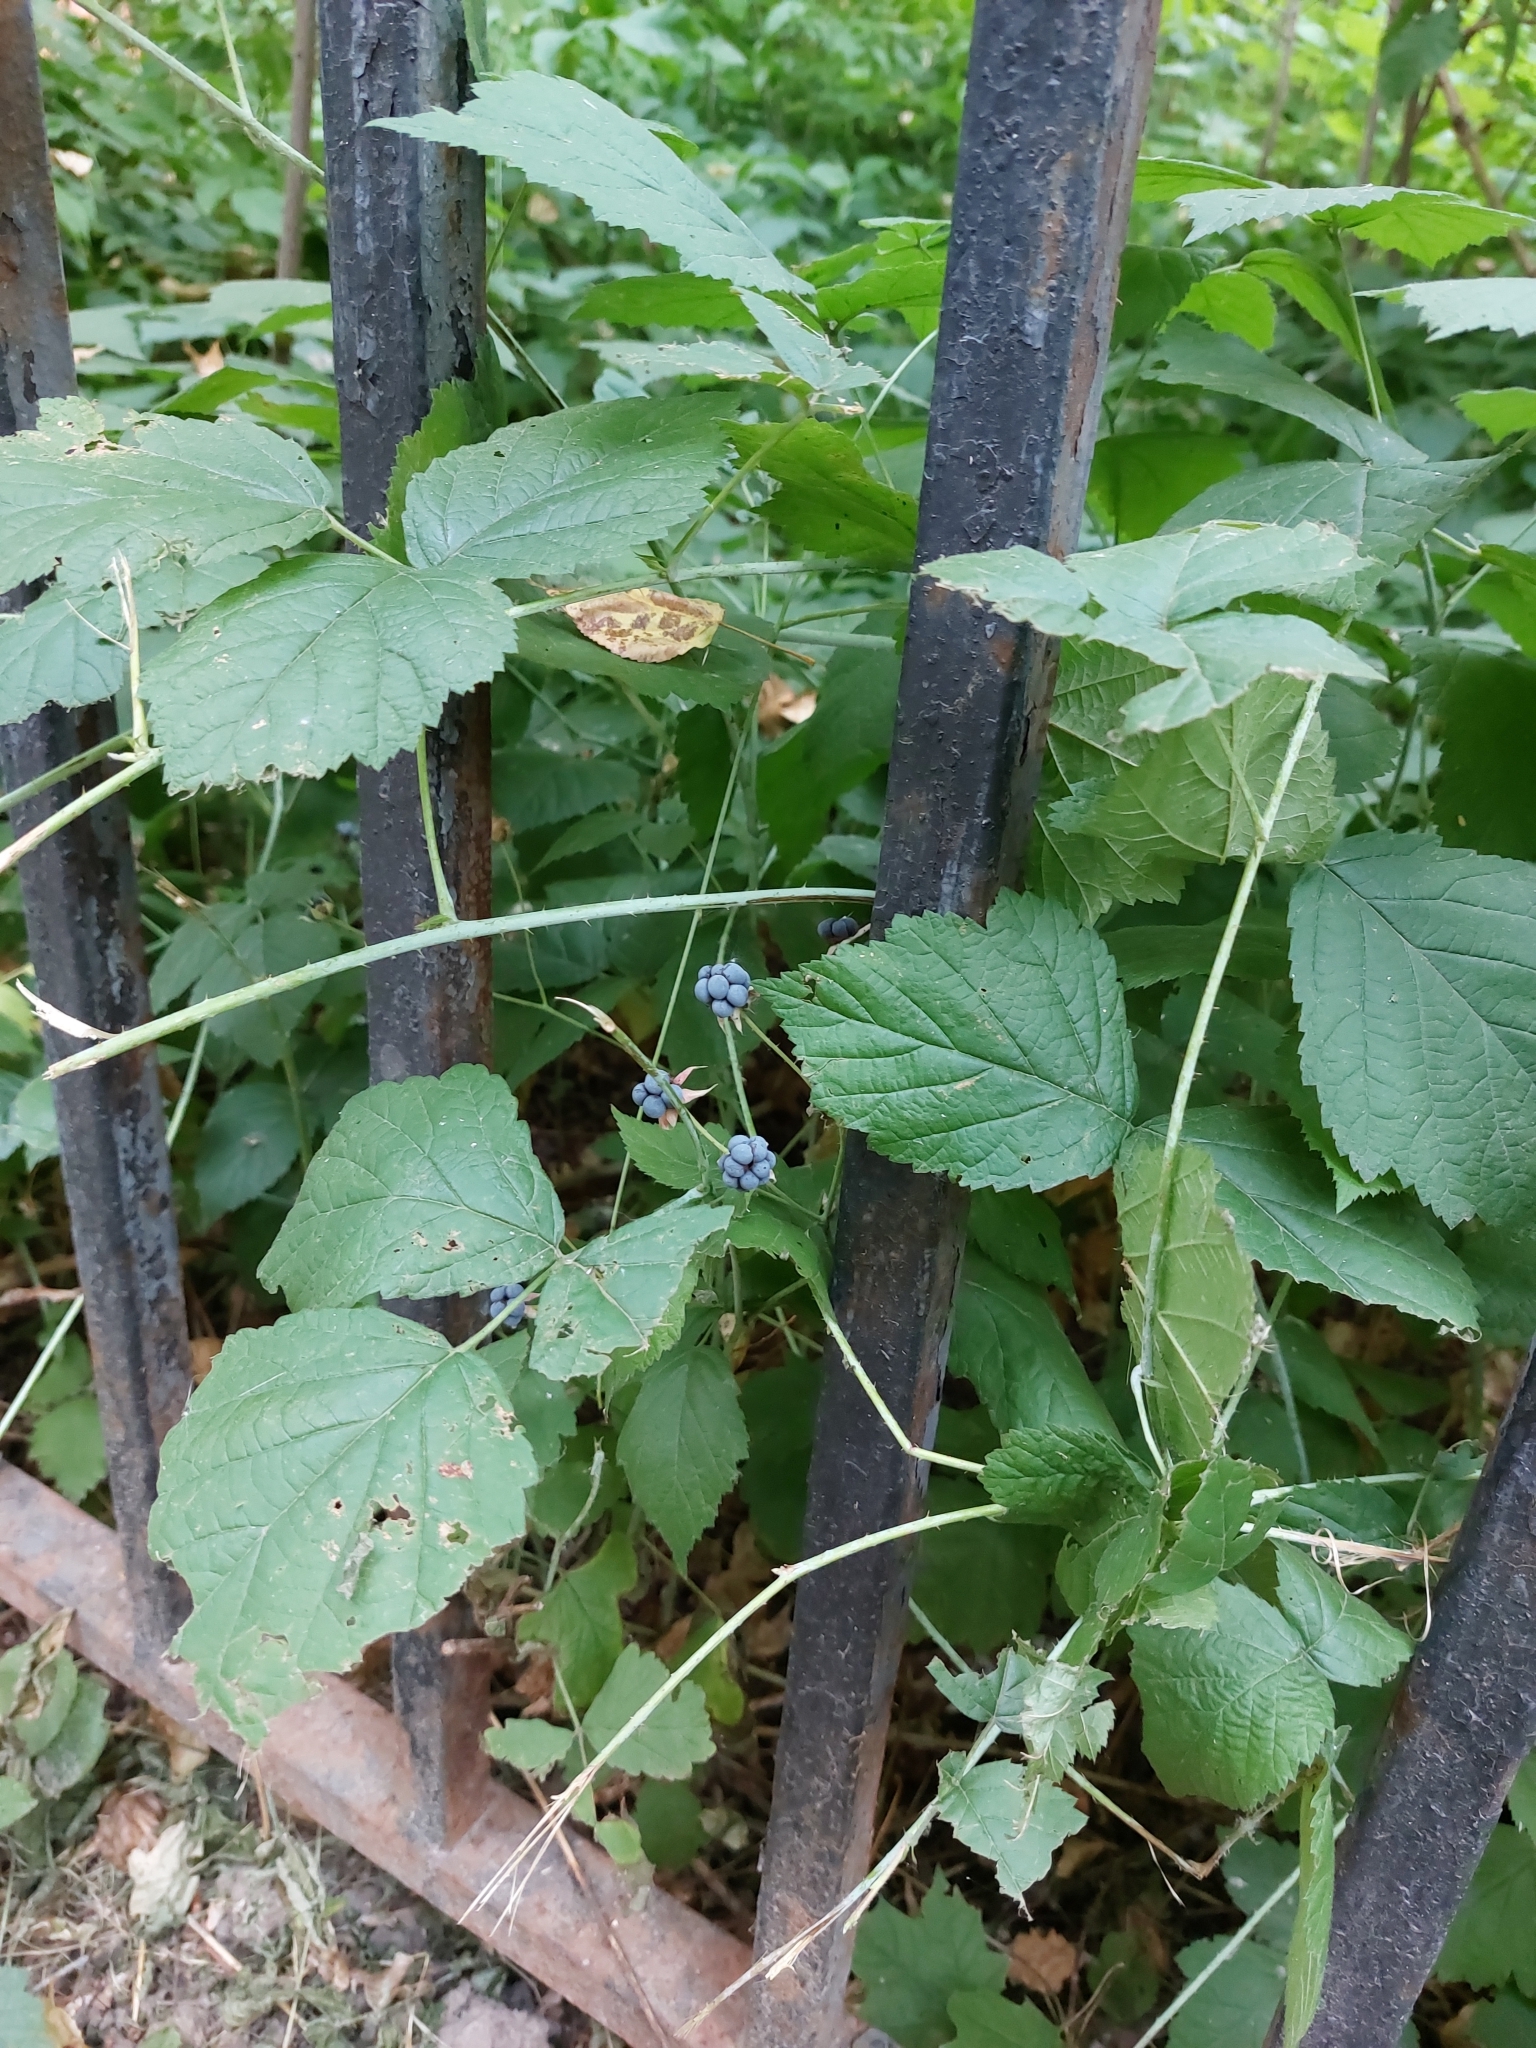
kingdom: Plantae
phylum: Tracheophyta
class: Magnoliopsida
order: Rosales
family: Rosaceae
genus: Rubus
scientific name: Rubus caesius
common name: Dewberry
